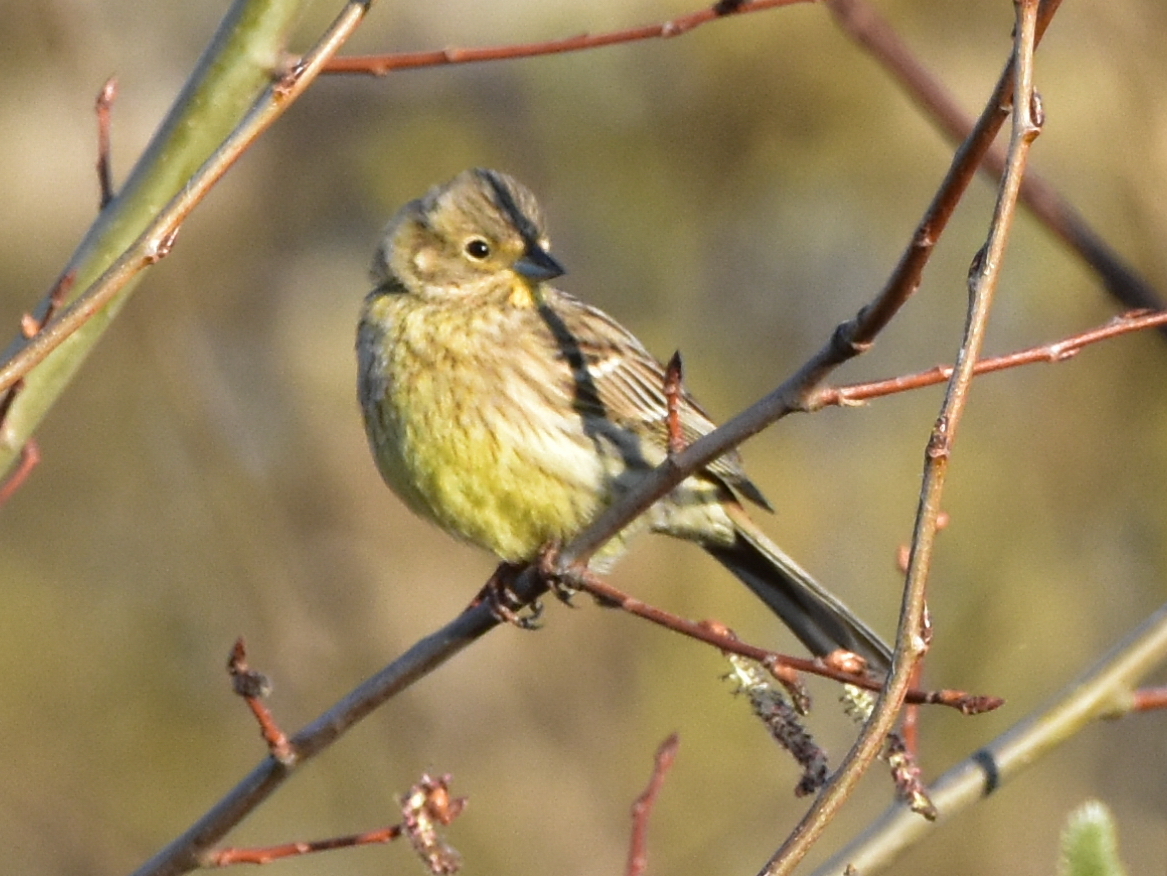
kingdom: Animalia
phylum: Chordata
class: Aves
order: Passeriformes
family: Emberizidae
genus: Emberiza
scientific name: Emberiza citrinella
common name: Yellowhammer
